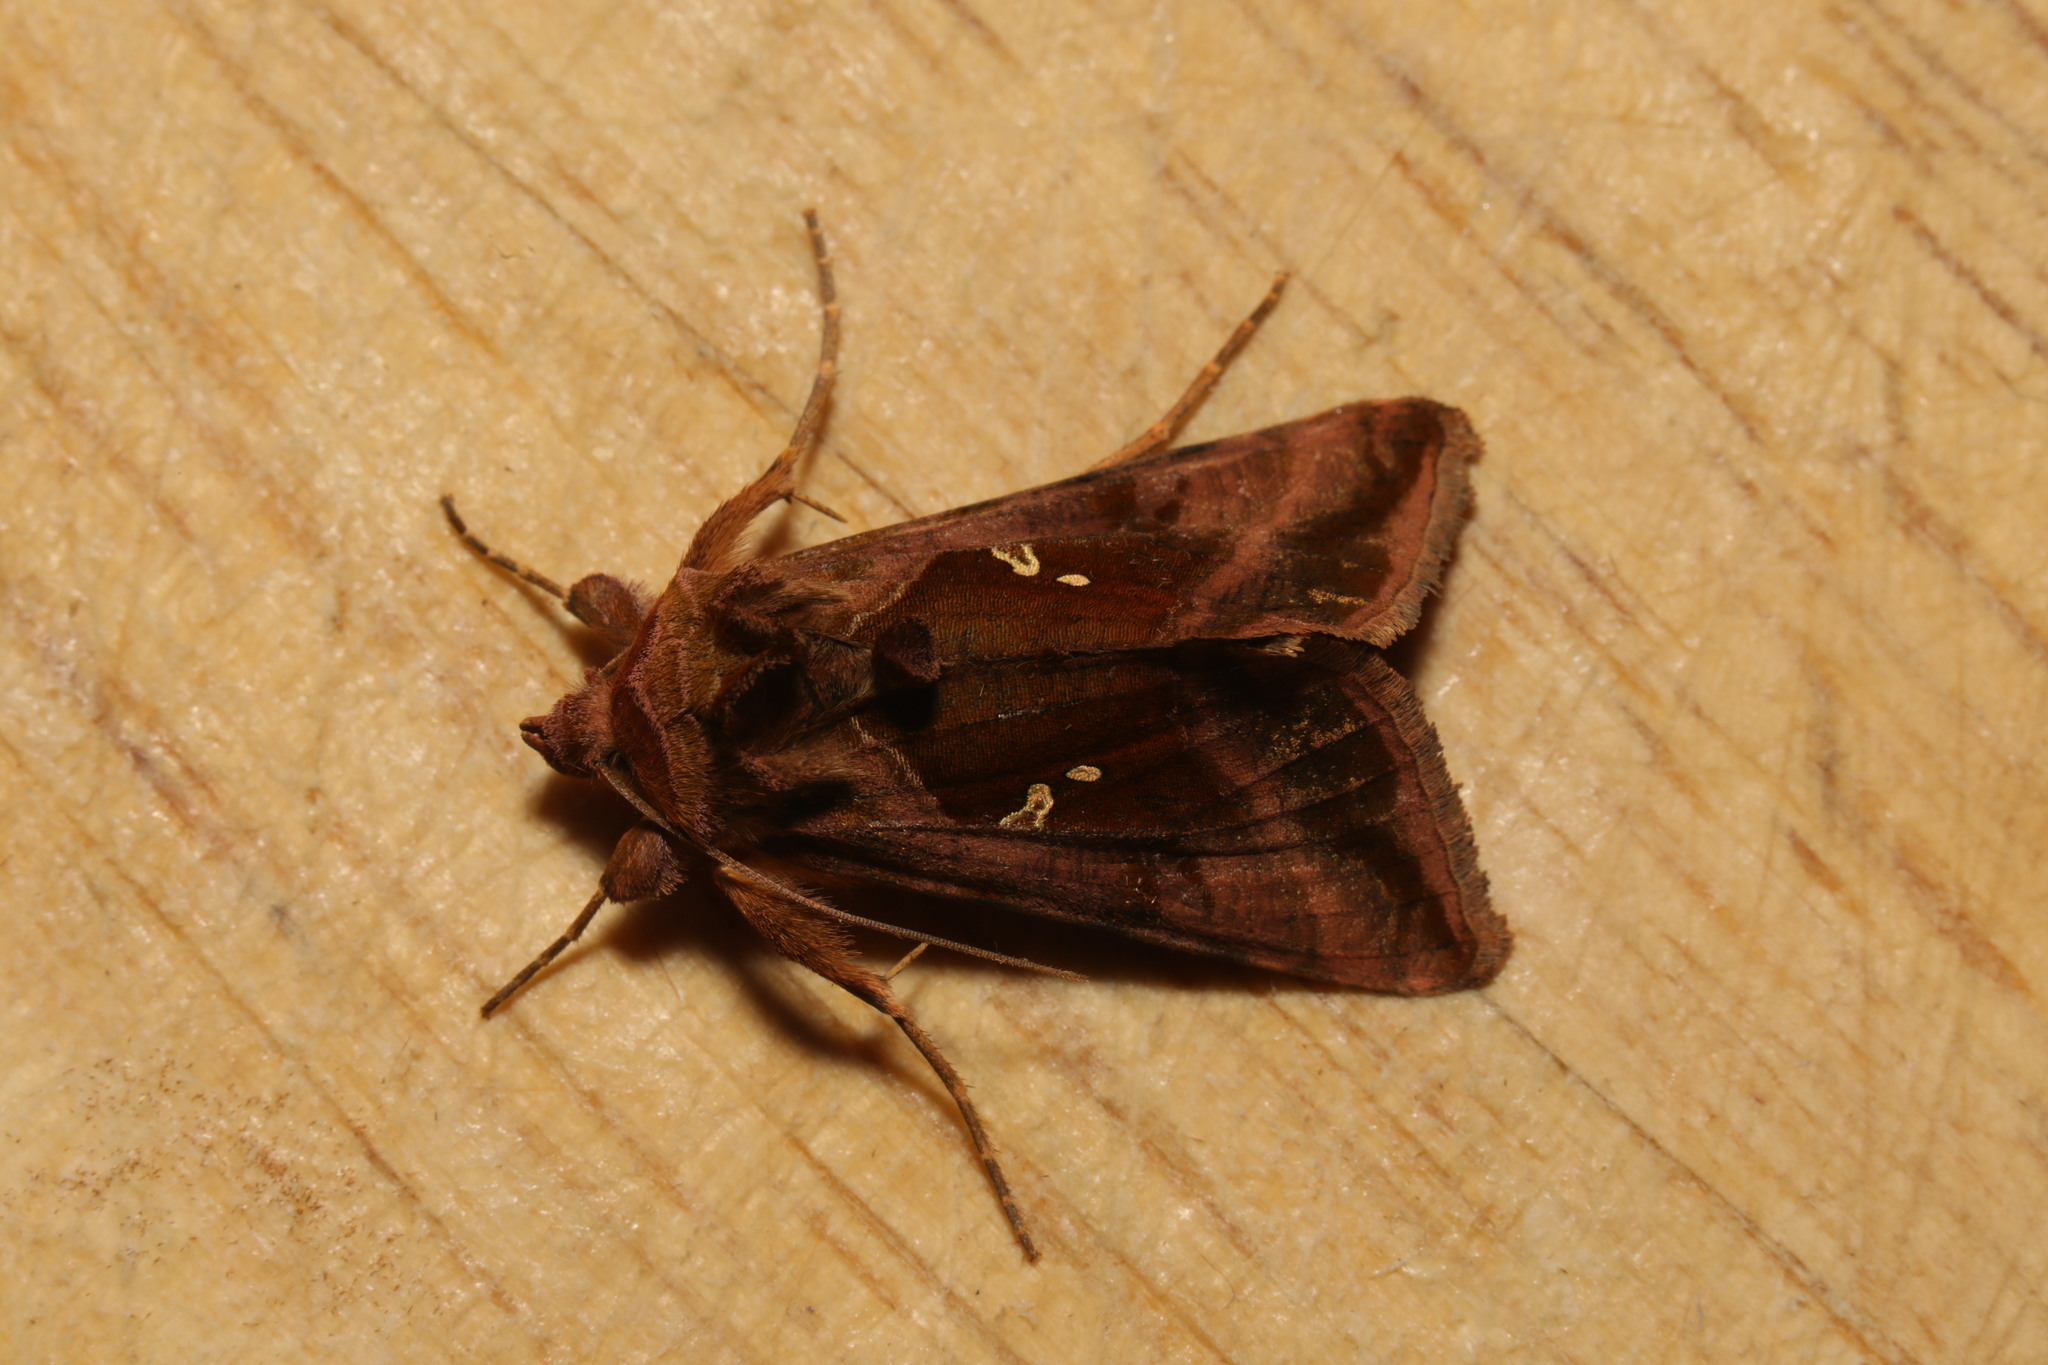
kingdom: Animalia
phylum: Arthropoda
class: Insecta
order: Lepidoptera
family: Noctuidae
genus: Autographa
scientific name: Autographa jota
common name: Plain golden y
